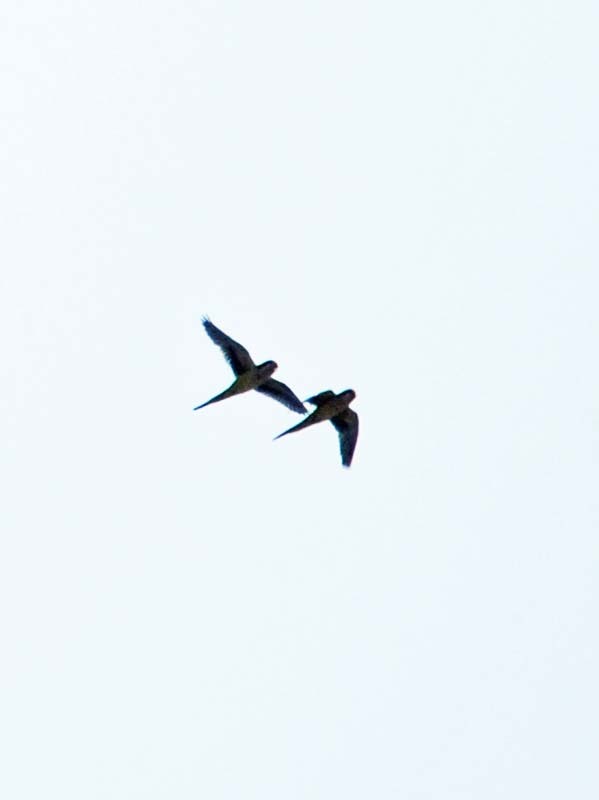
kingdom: Animalia
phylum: Chordata
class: Aves
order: Psittaciformes
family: Psittacidae
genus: Myiopsitta
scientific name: Myiopsitta monachus
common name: Monk parakeet
